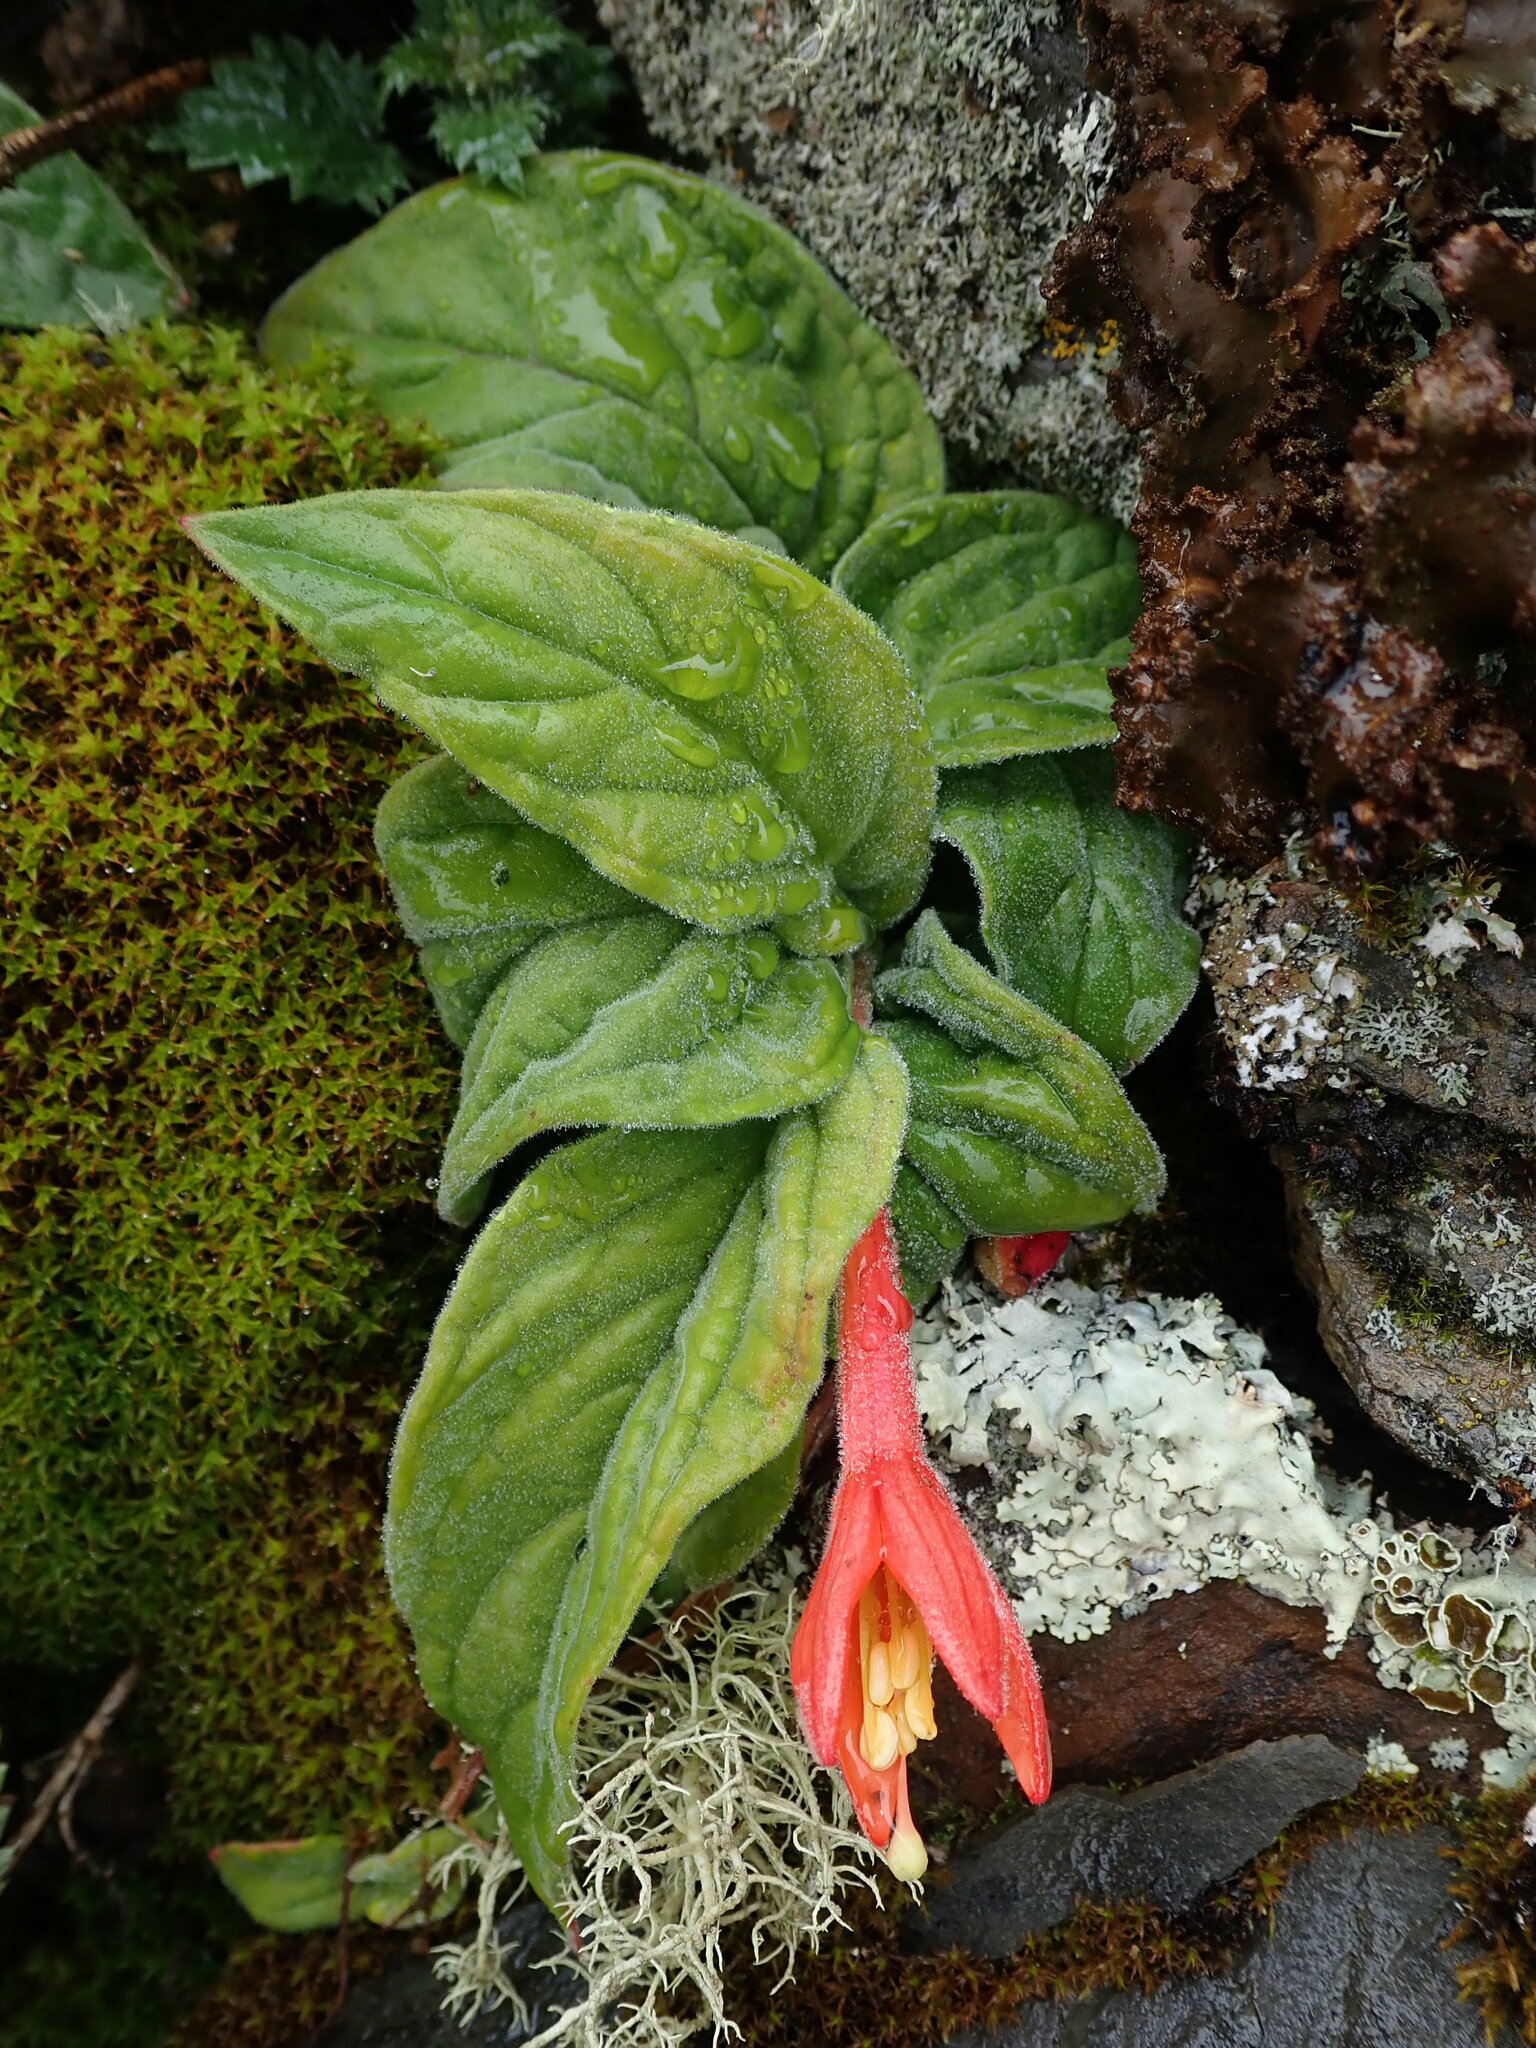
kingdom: Plantae
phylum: Tracheophyta
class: Magnoliopsida
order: Myrtales
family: Onagraceae
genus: Fuchsia
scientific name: Fuchsia apetala
